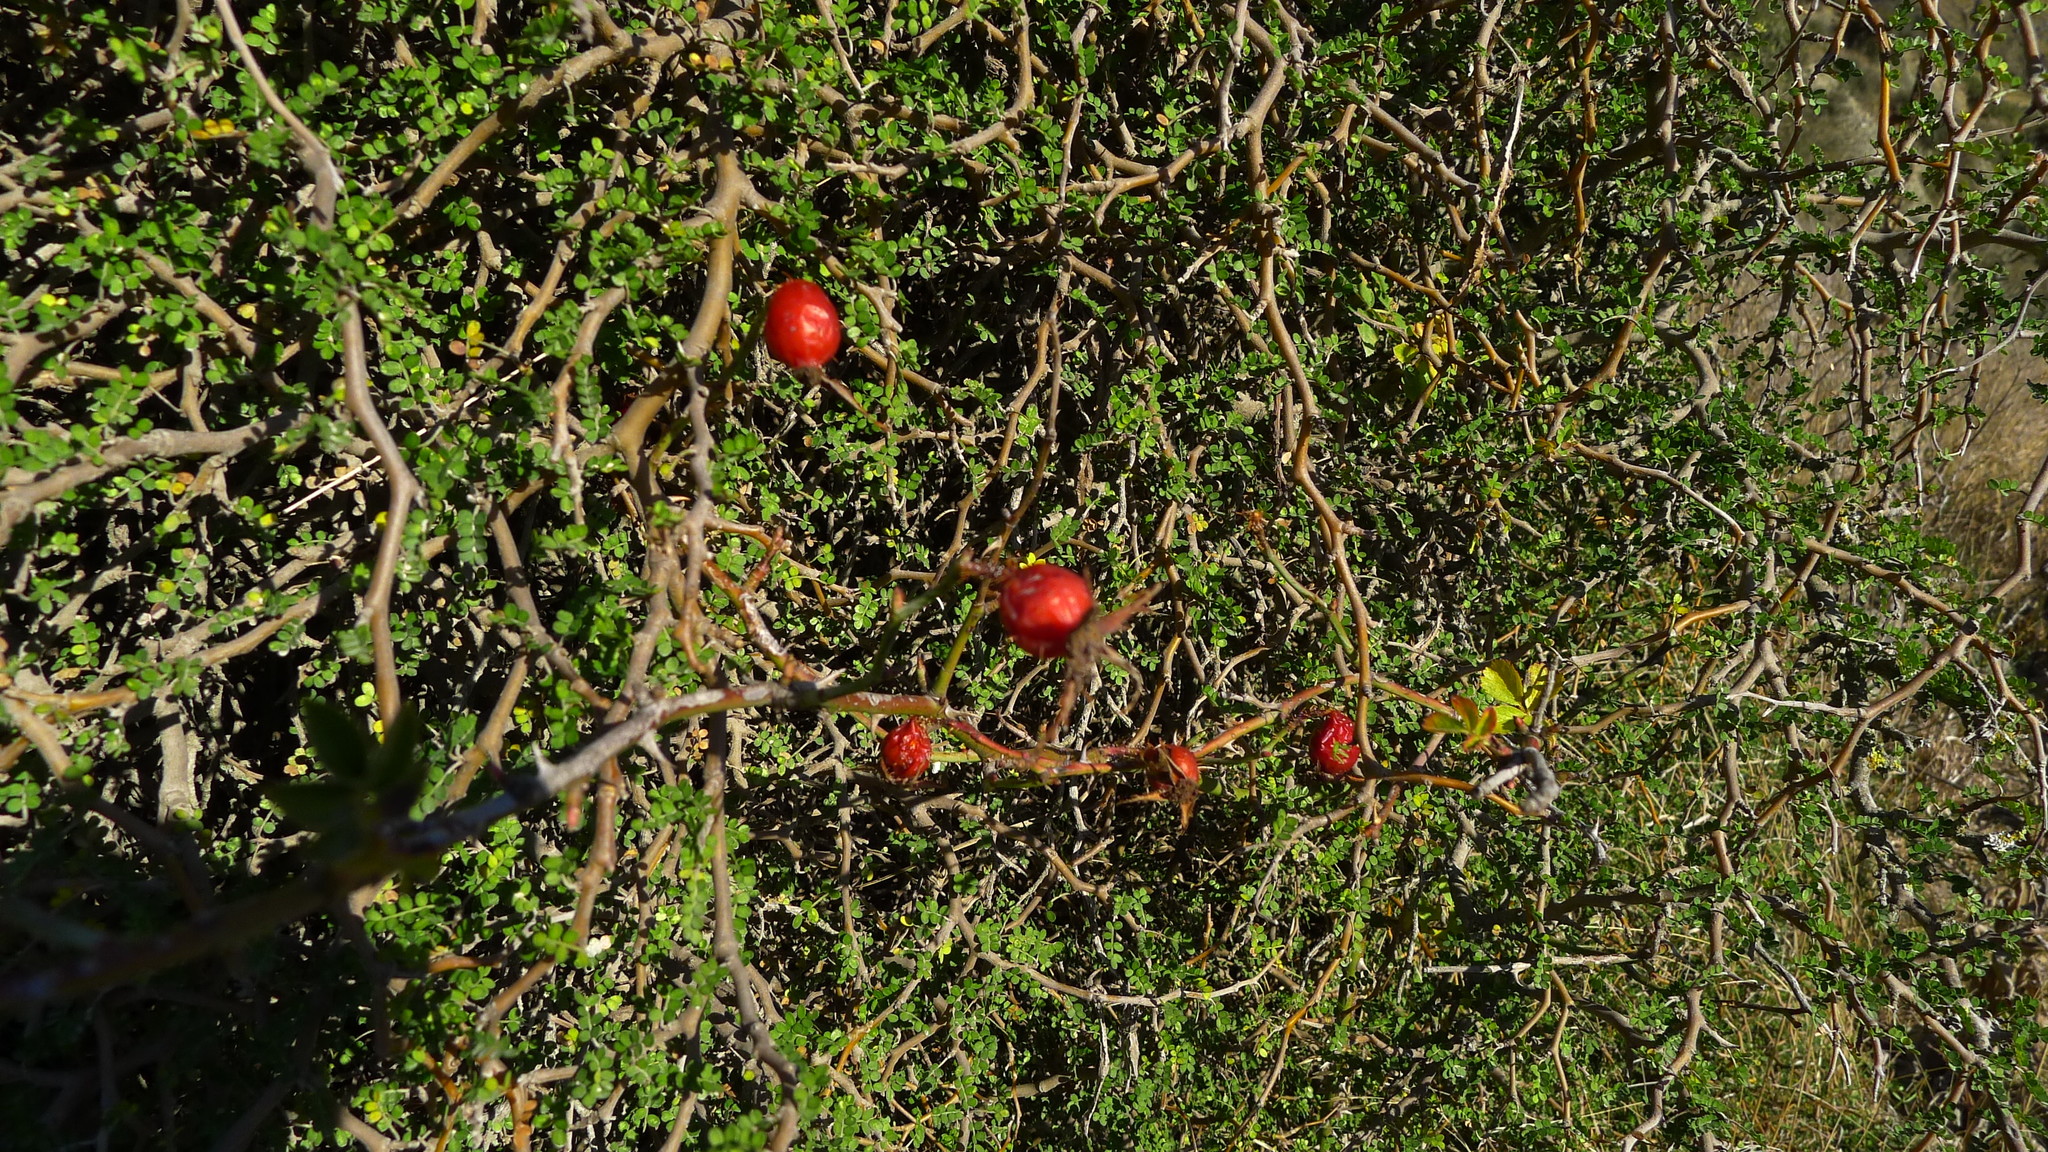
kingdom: Plantae
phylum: Tracheophyta
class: Magnoliopsida
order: Rosales
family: Rosaceae
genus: Rosa
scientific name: Rosa rubiginosa
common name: Sweet-briar
